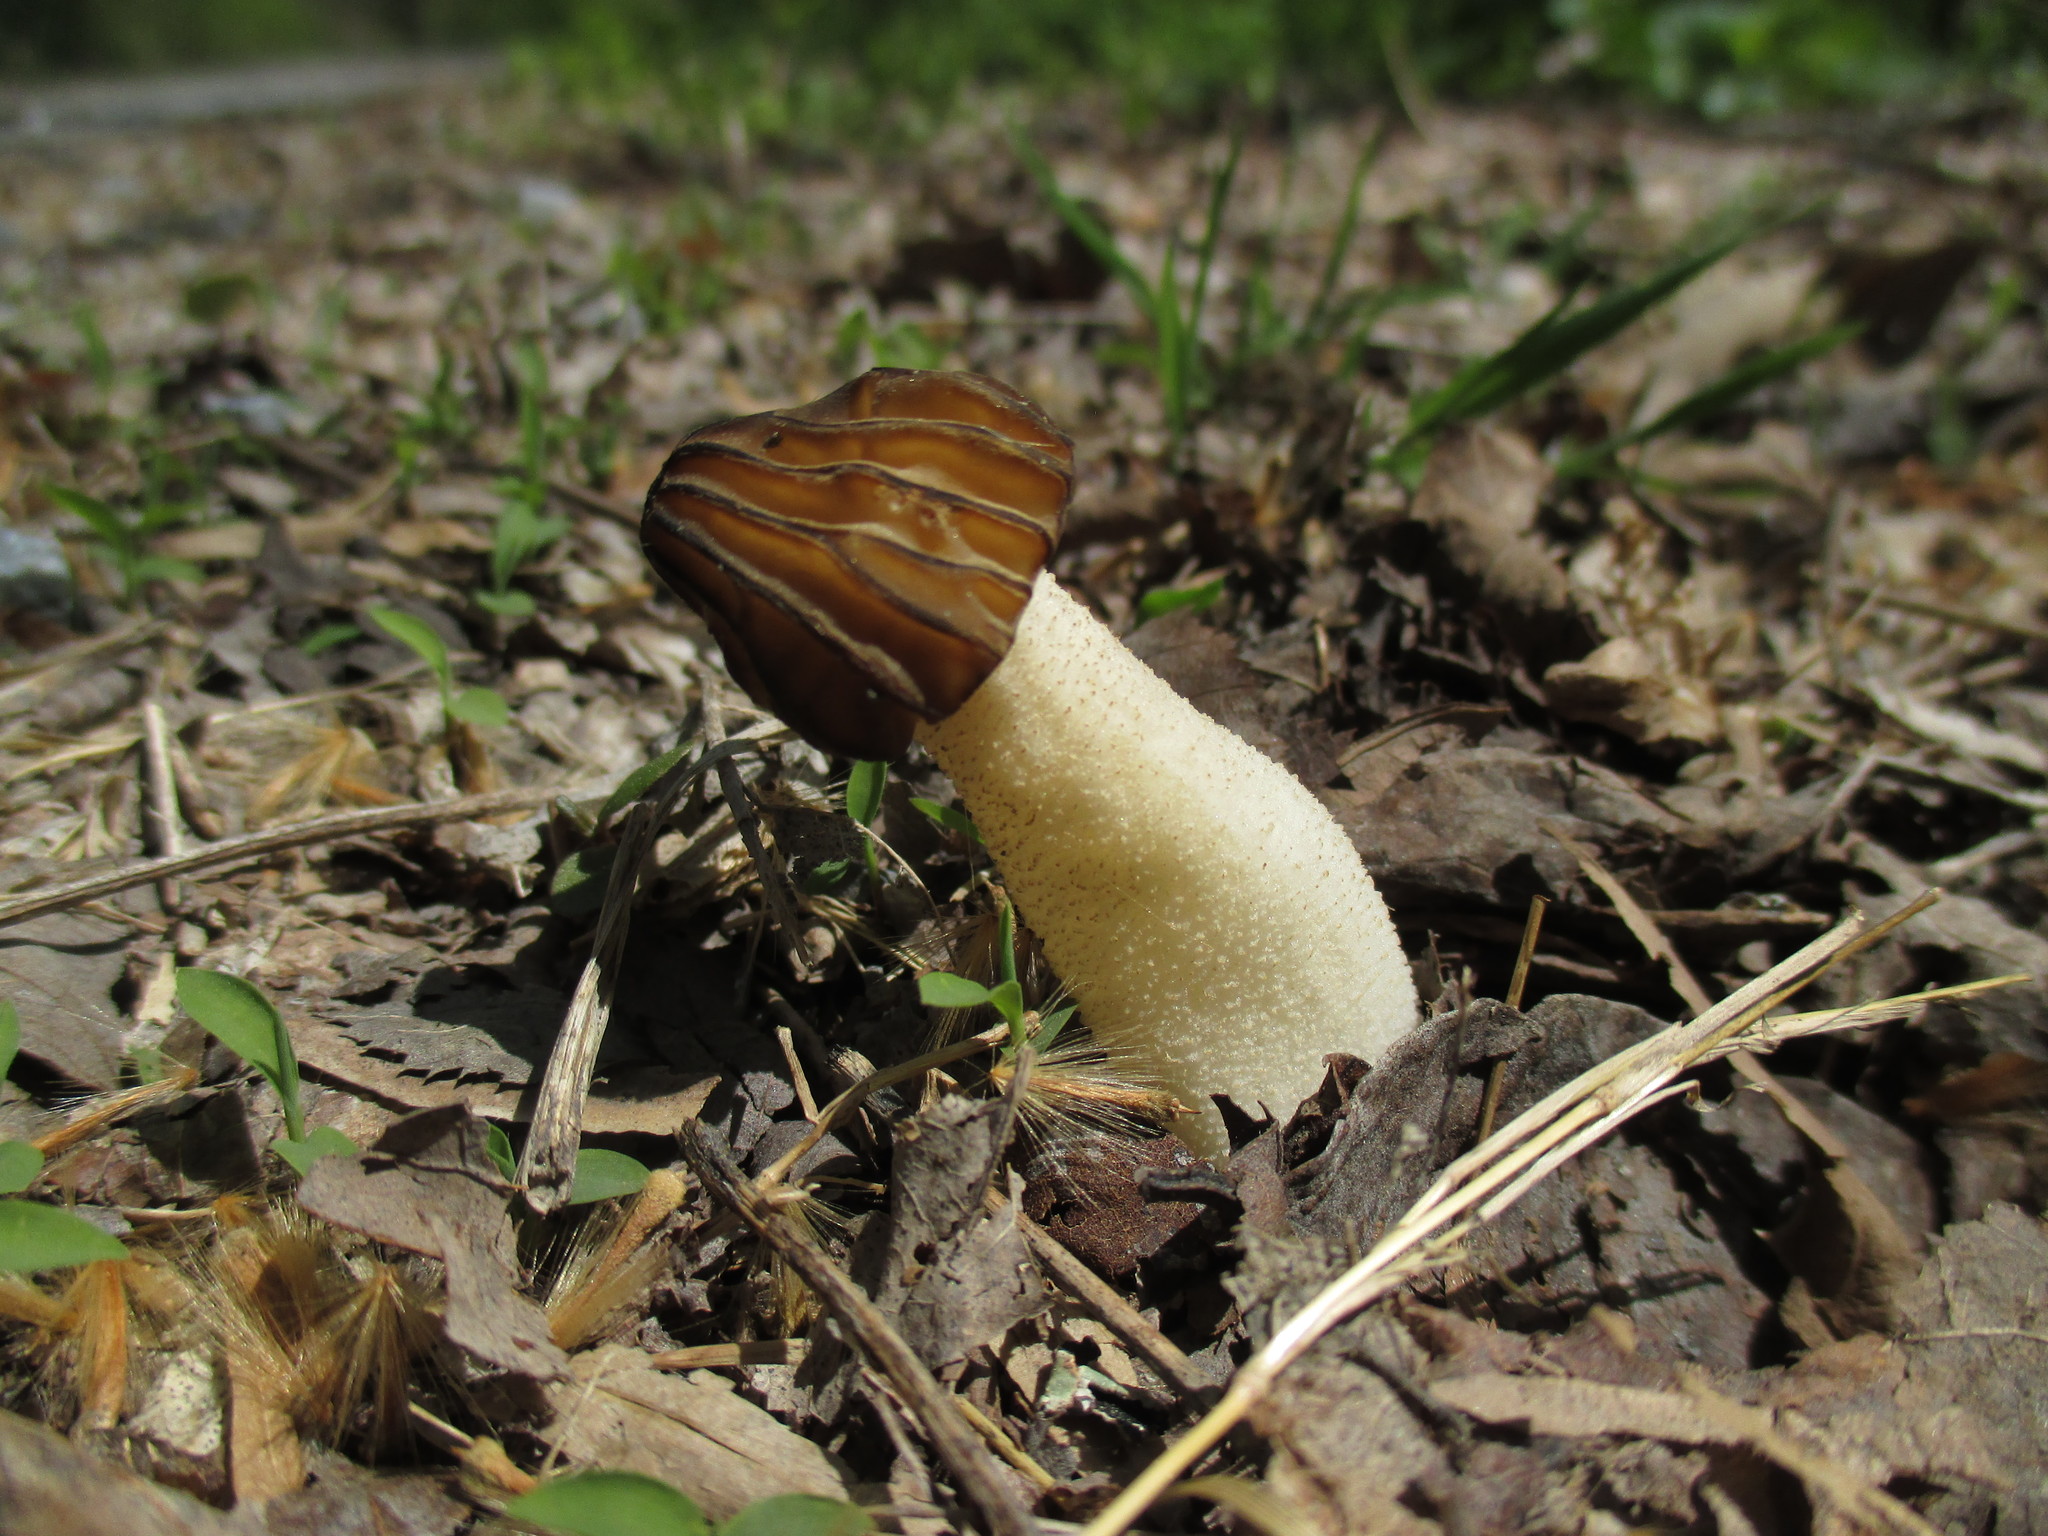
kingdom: Fungi
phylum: Ascomycota
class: Pezizomycetes
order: Pezizales
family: Morchellaceae
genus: Morchella
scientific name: Morchella punctipes
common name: Half-free morel
